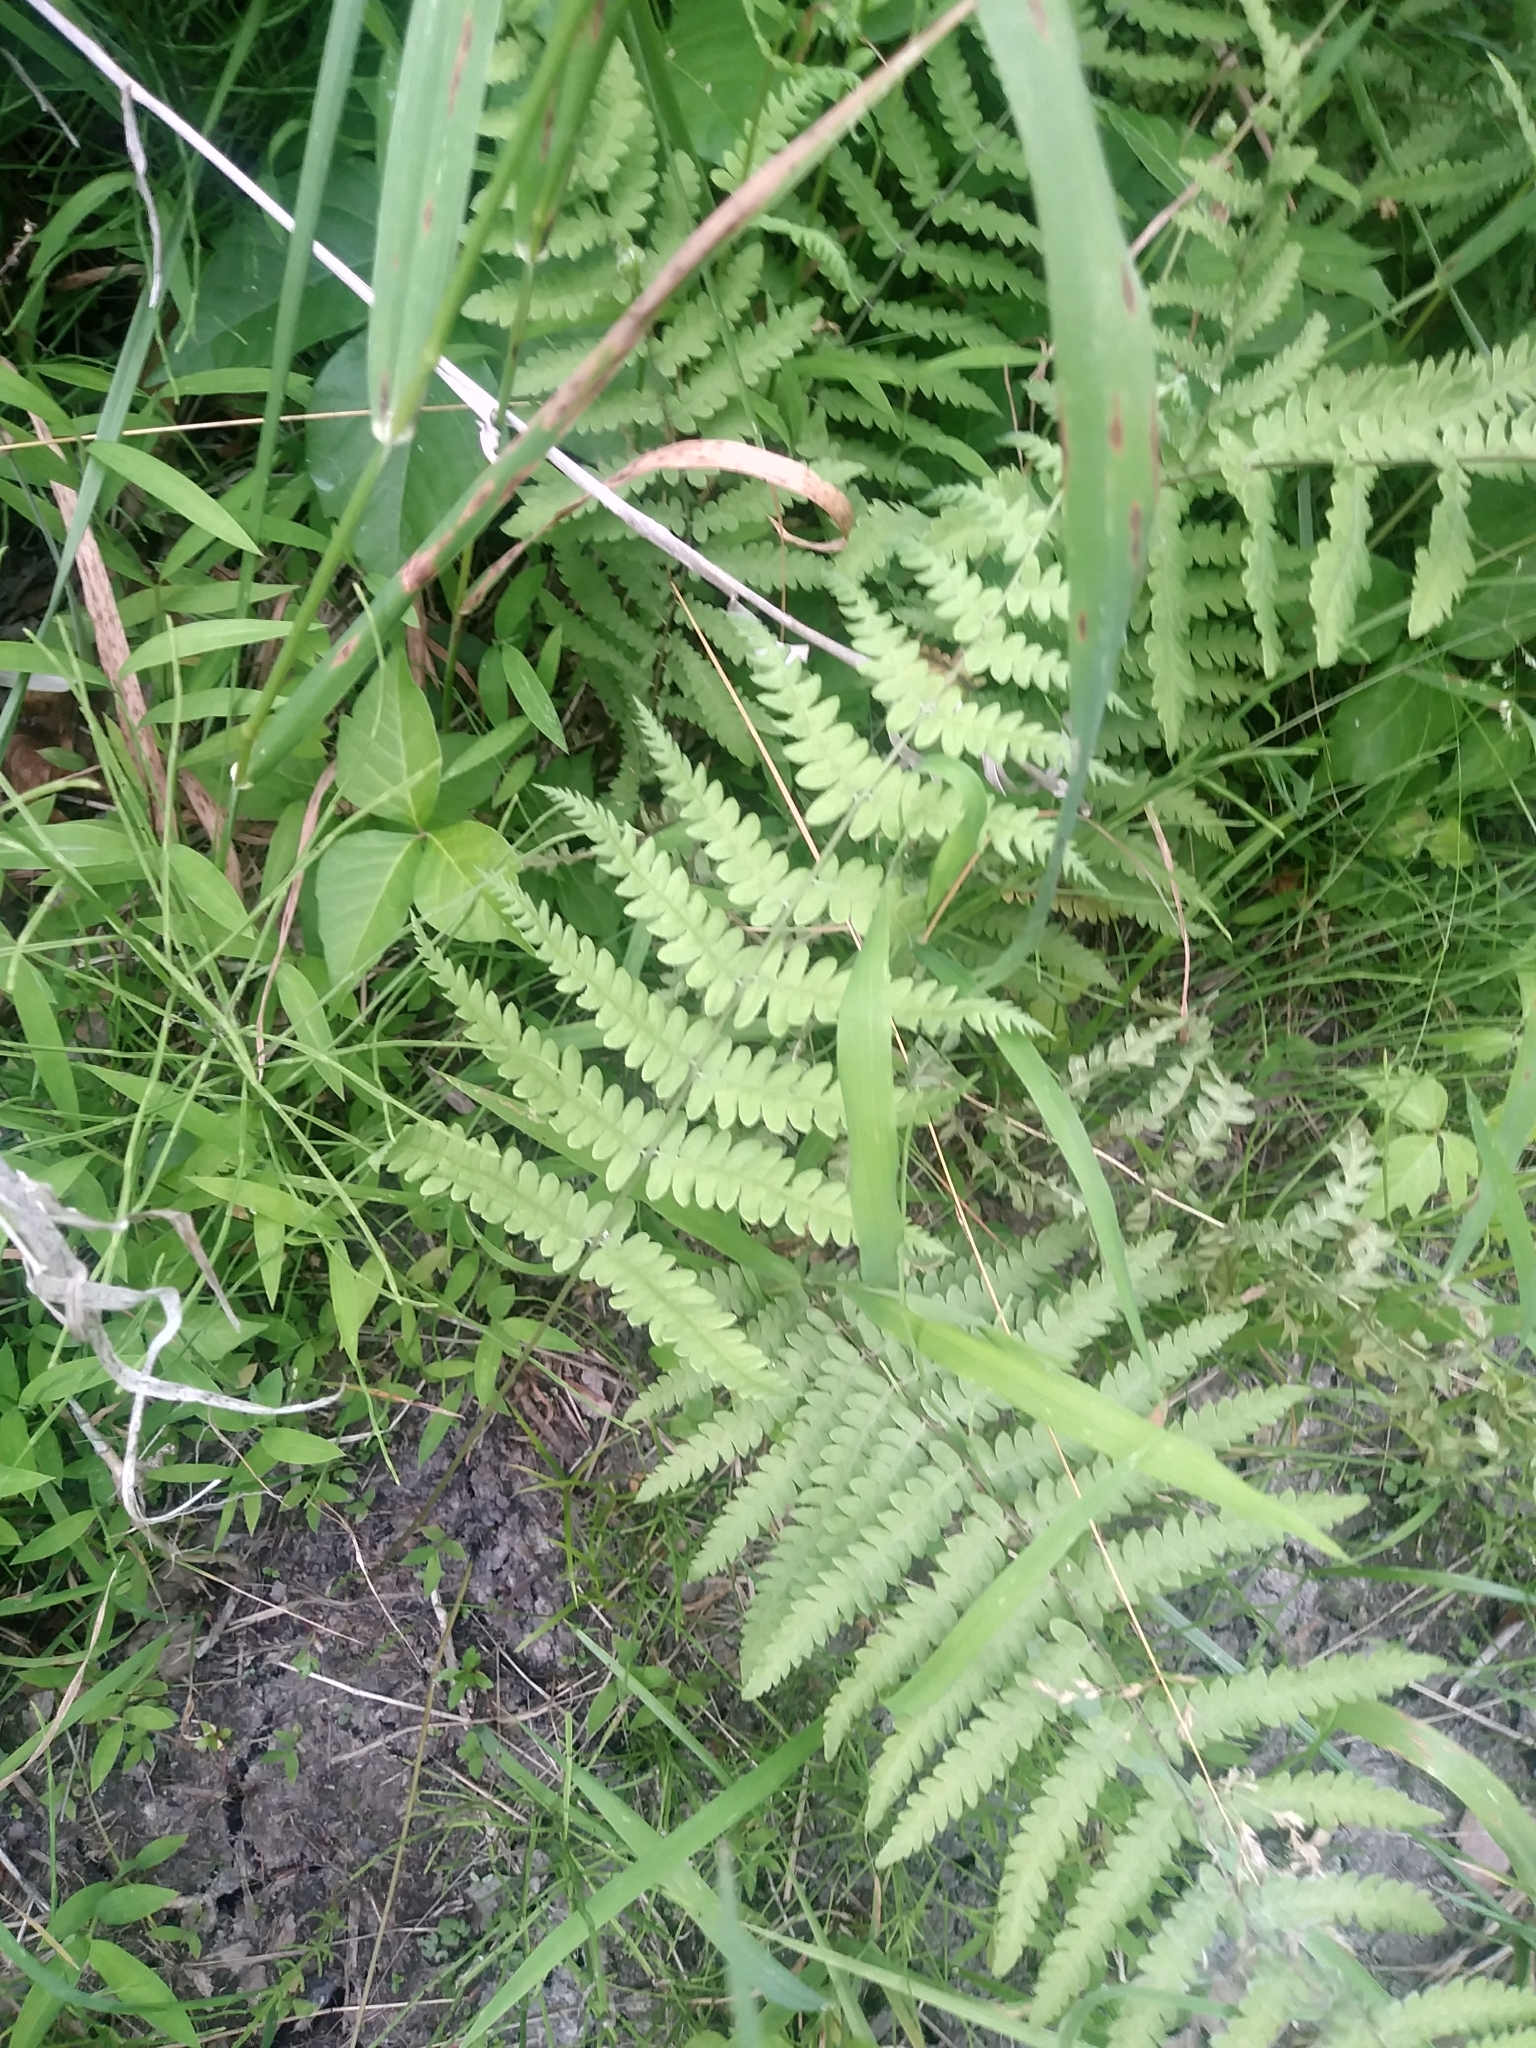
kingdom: Plantae
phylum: Tracheophyta
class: Polypodiopsida
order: Polypodiales
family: Thelypteridaceae
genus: Thelypteris
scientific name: Thelypteris palustris
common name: Marsh fern
